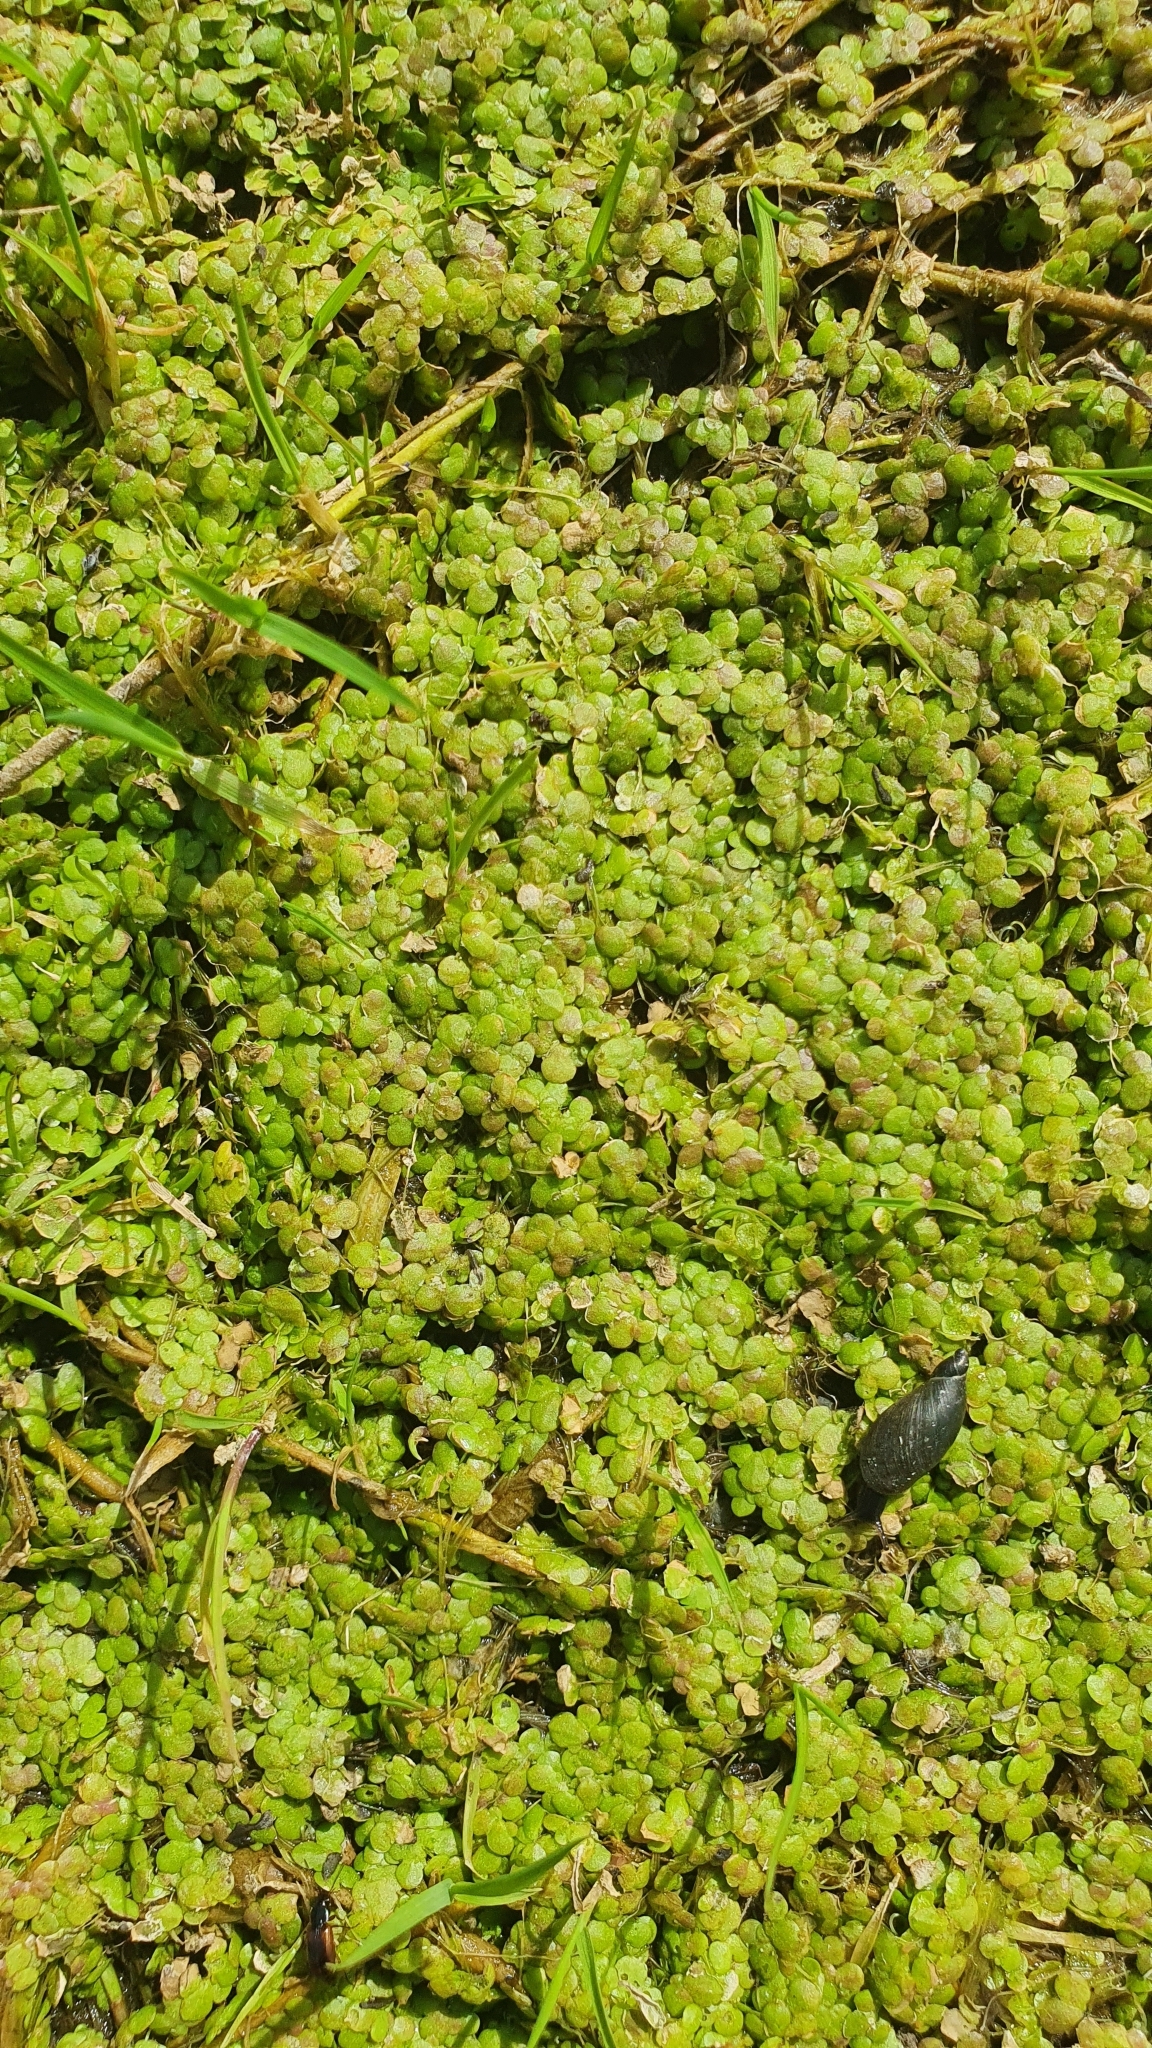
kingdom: Plantae
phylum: Tracheophyta
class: Liliopsida
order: Alismatales
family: Araceae
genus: Lemna
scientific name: Lemna minor
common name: Common duckweed
